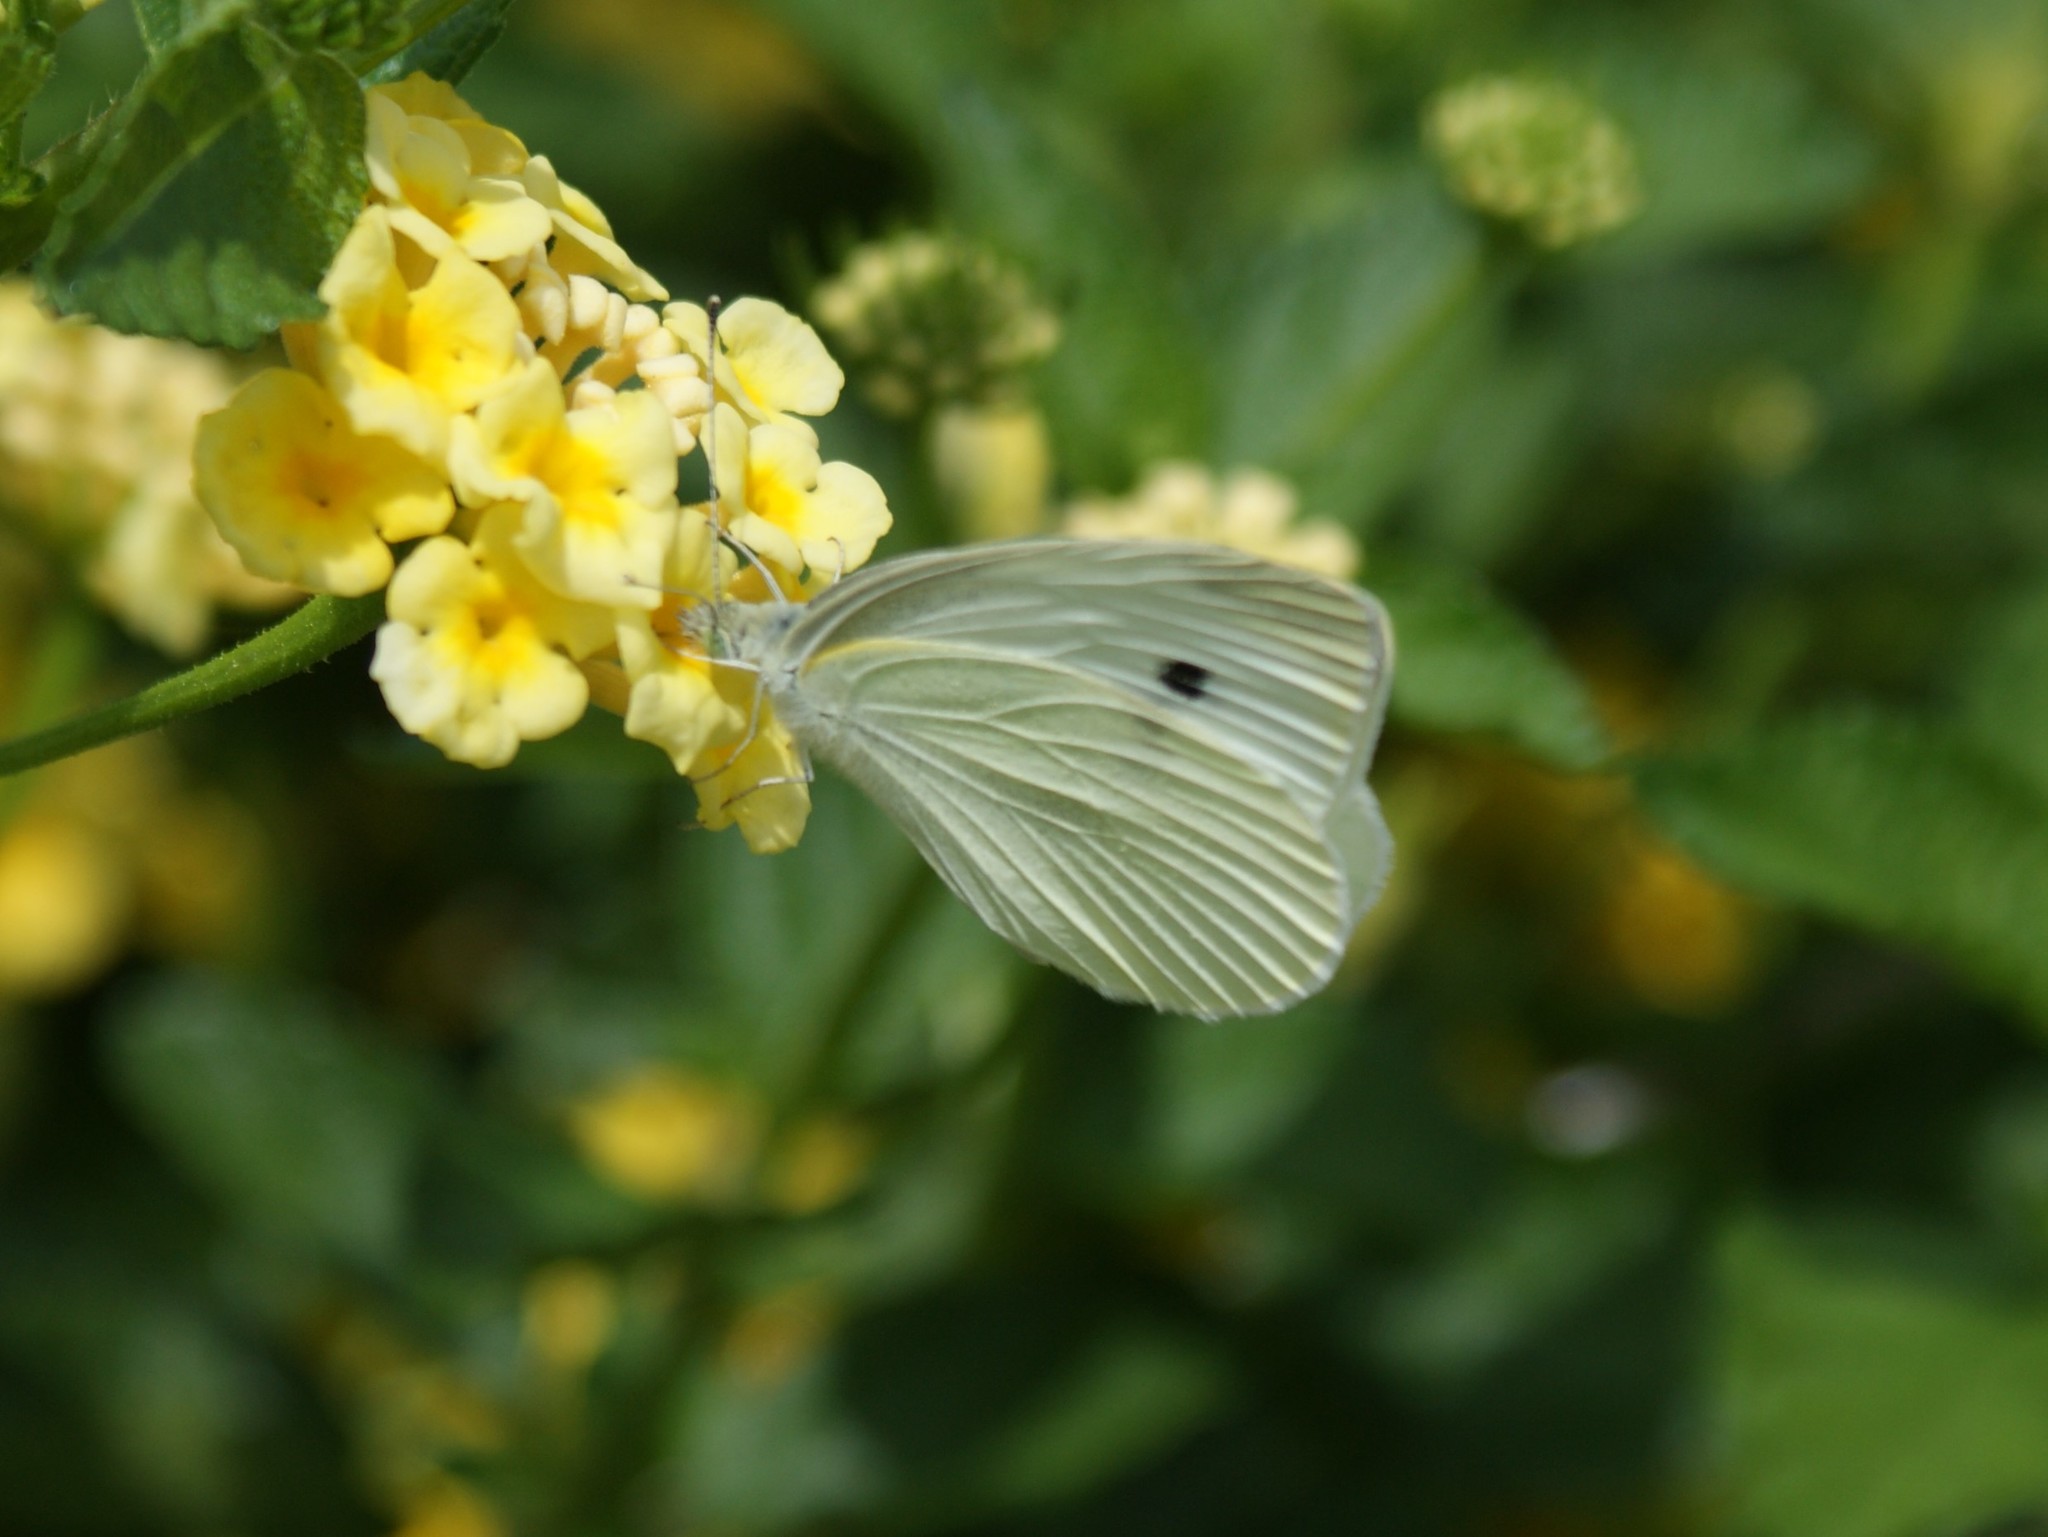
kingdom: Animalia
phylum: Arthropoda
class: Insecta
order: Lepidoptera
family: Pieridae
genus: Pieris
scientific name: Pieris rapae
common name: Small white
